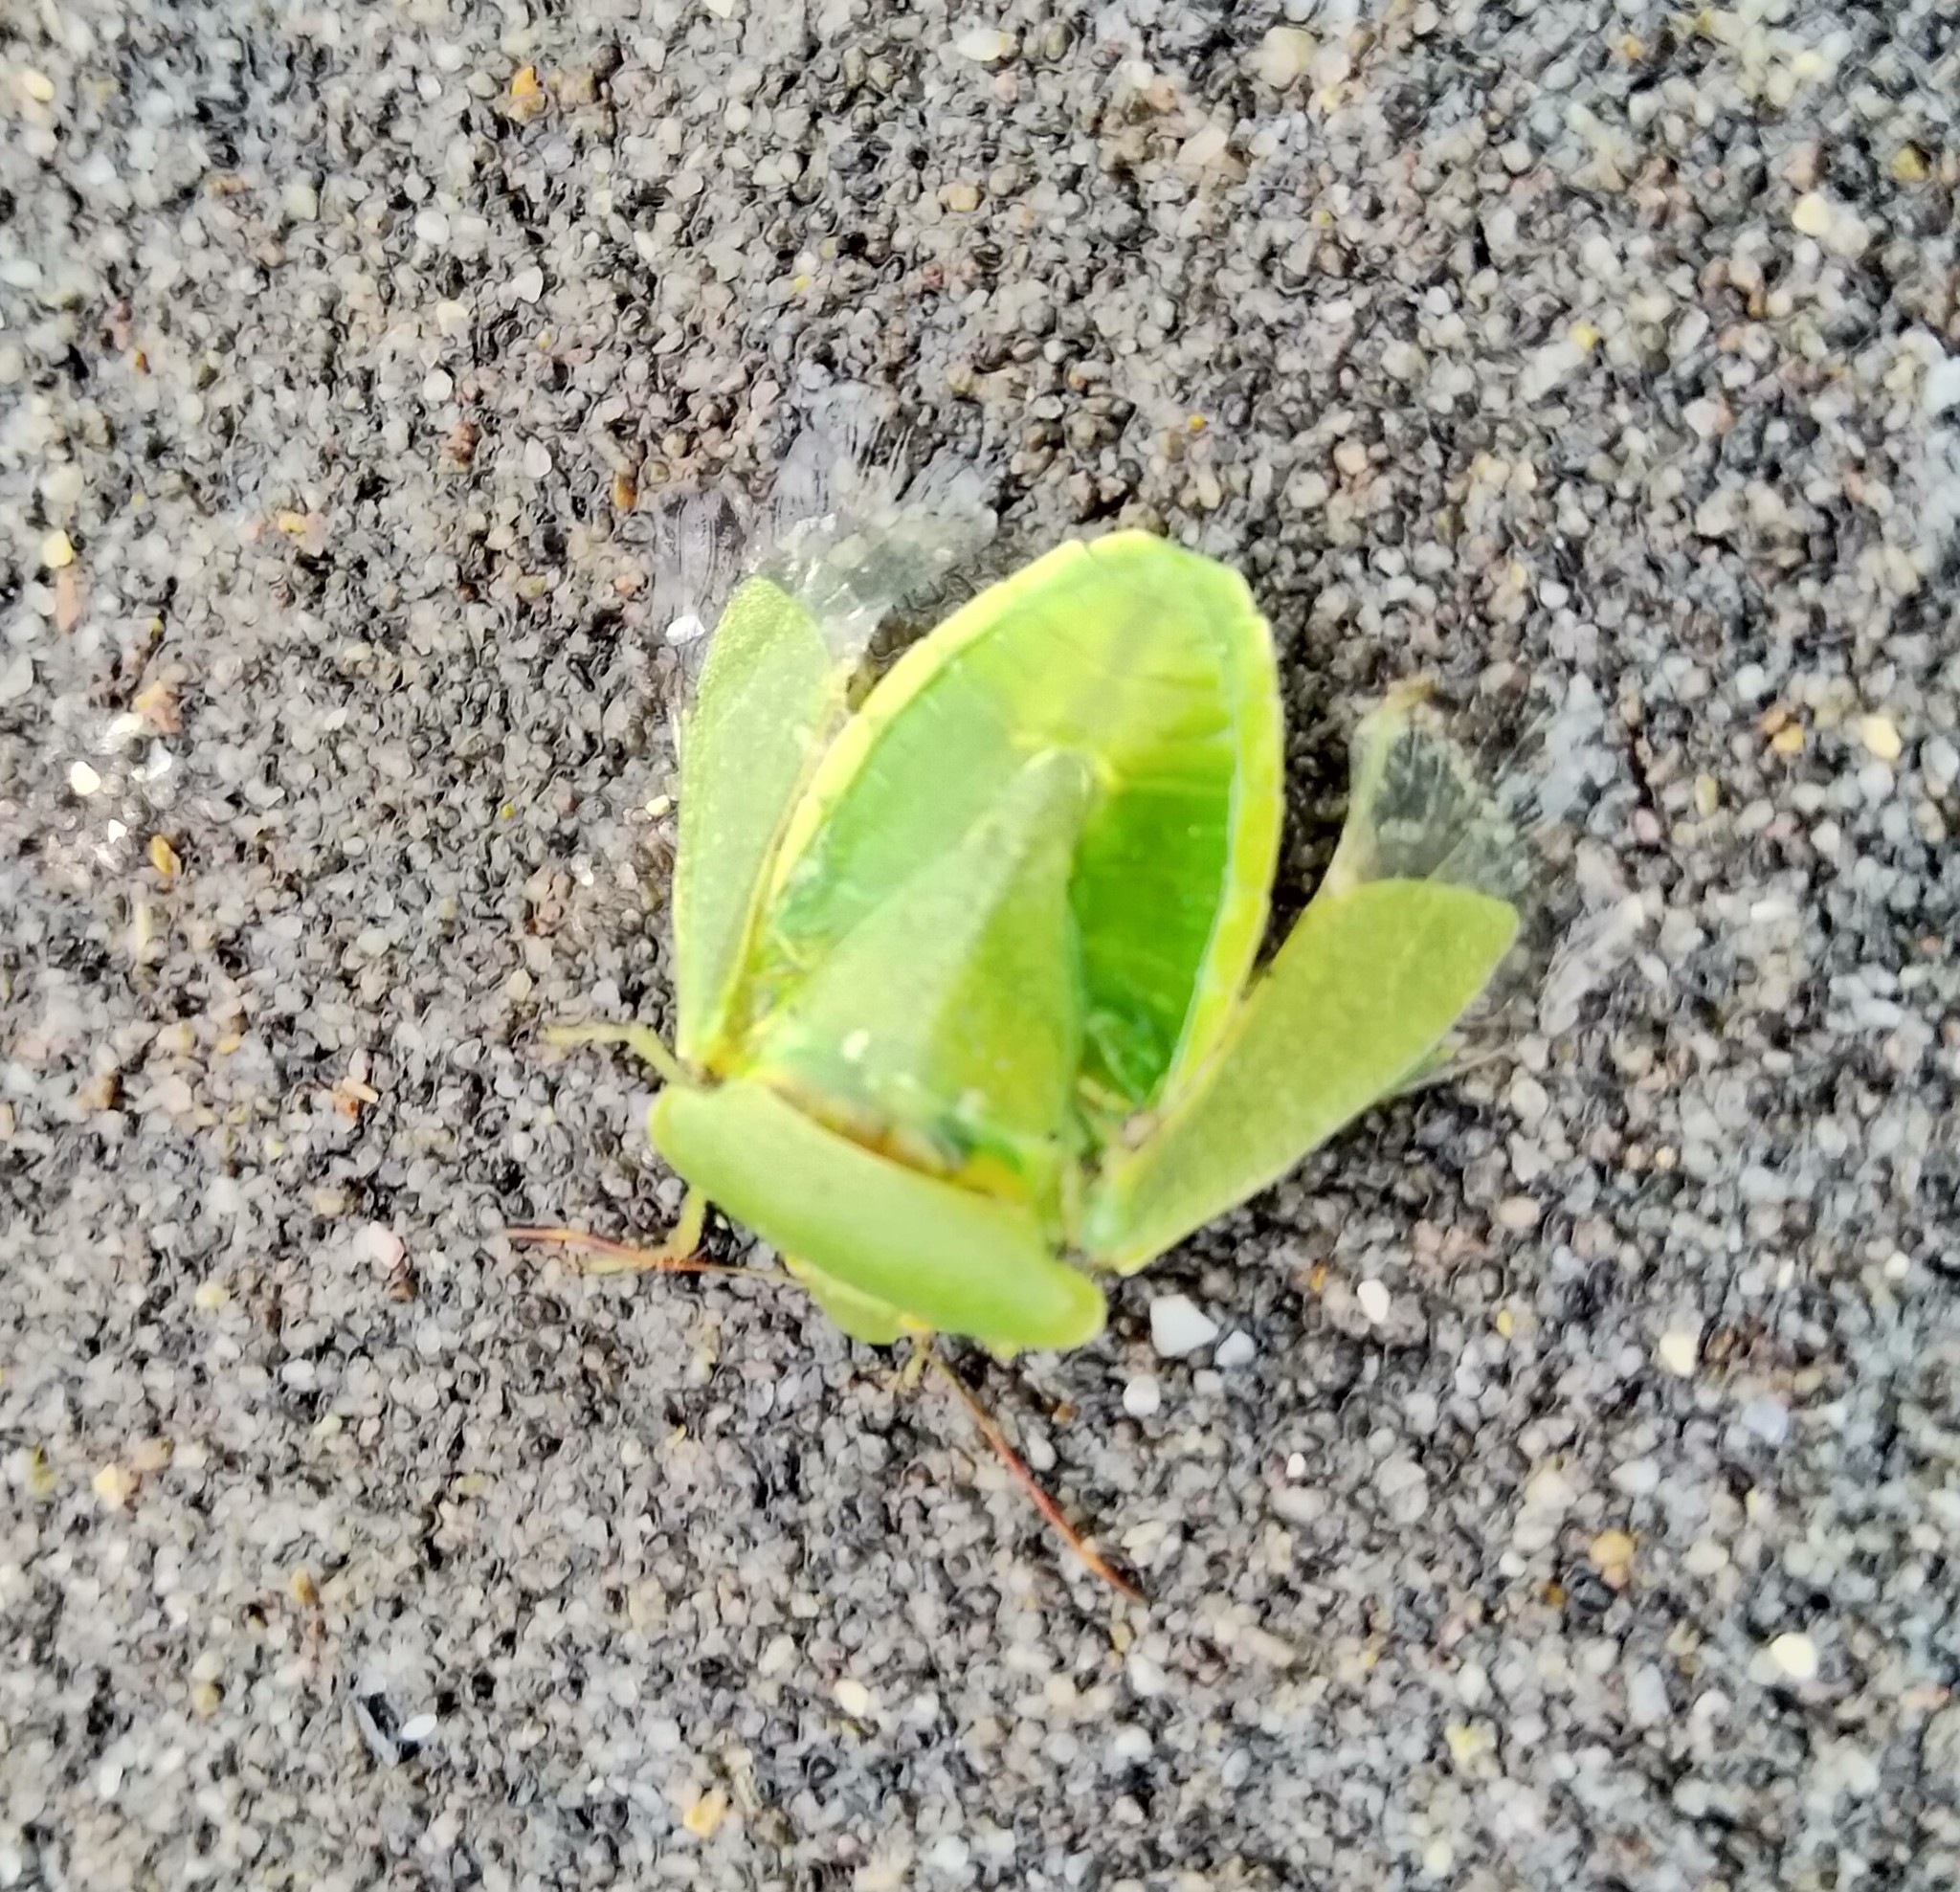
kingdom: Animalia
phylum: Arthropoda
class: Insecta
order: Hemiptera
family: Pentatomidae
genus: Nezara
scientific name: Nezara viridula
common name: Southern green stink bug
